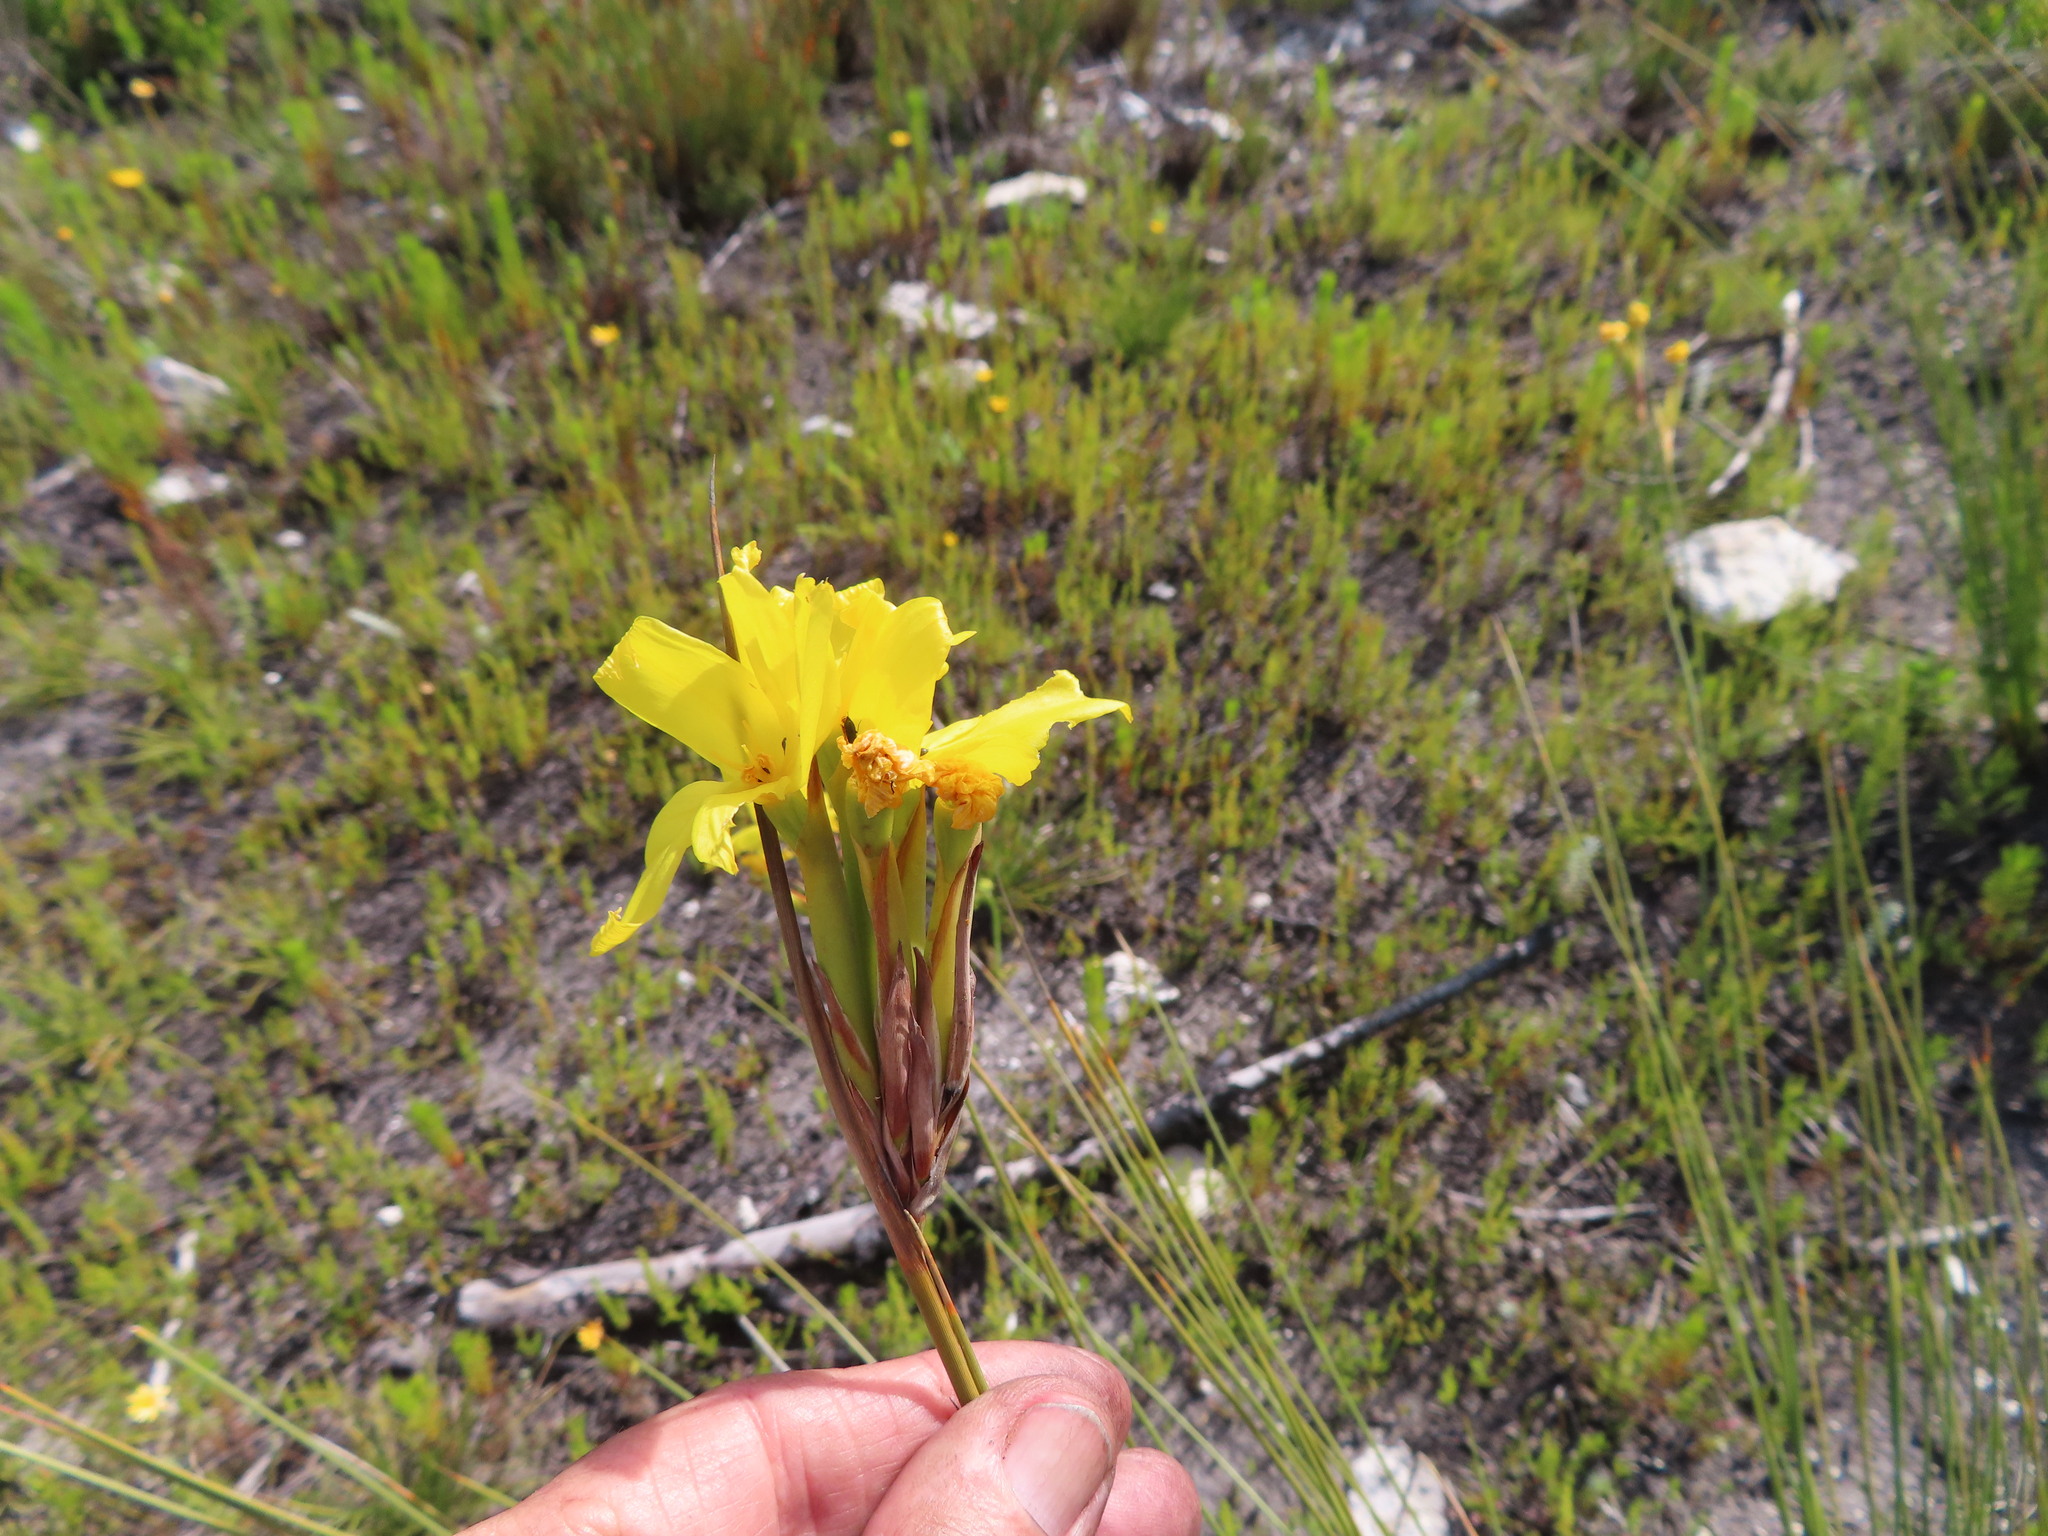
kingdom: Plantae
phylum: Tracheophyta
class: Liliopsida
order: Asparagales
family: Iridaceae
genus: Bobartia
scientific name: Bobartia longicyma
